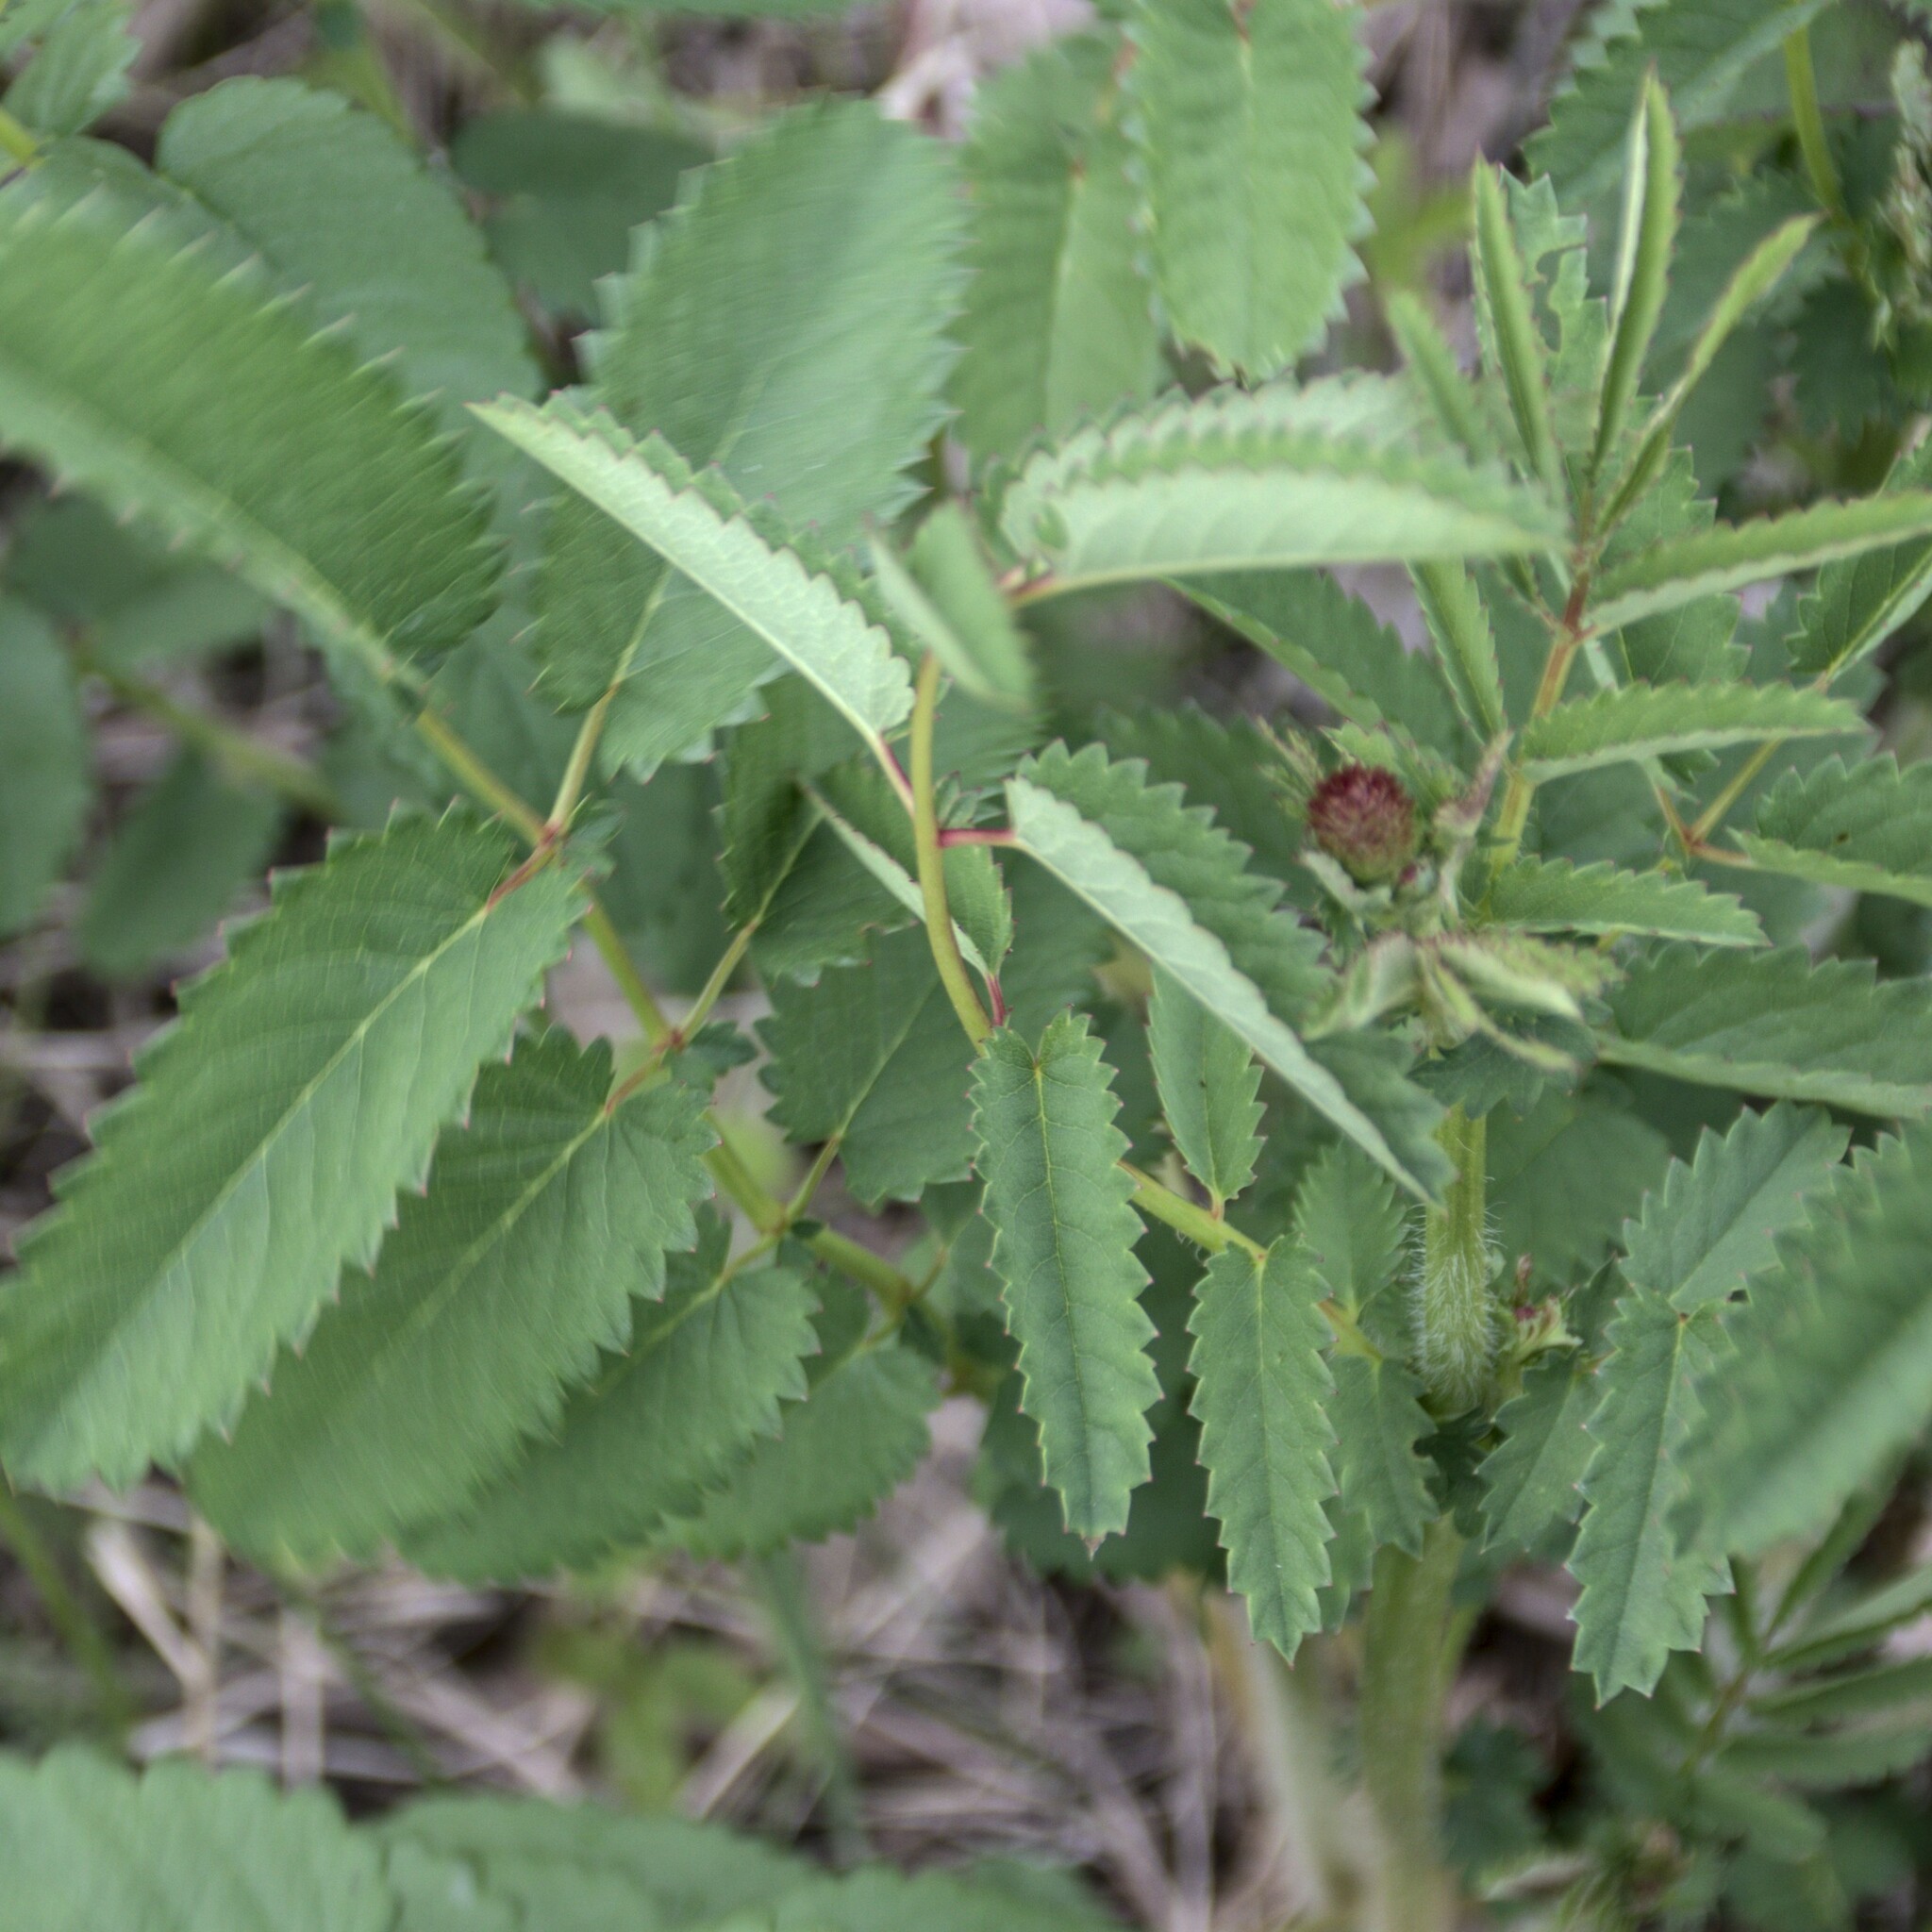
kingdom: Plantae
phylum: Tracheophyta
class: Magnoliopsida
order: Rosales
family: Rosaceae
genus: Sanguisorba
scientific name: Sanguisorba officinalis
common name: Great burnet
